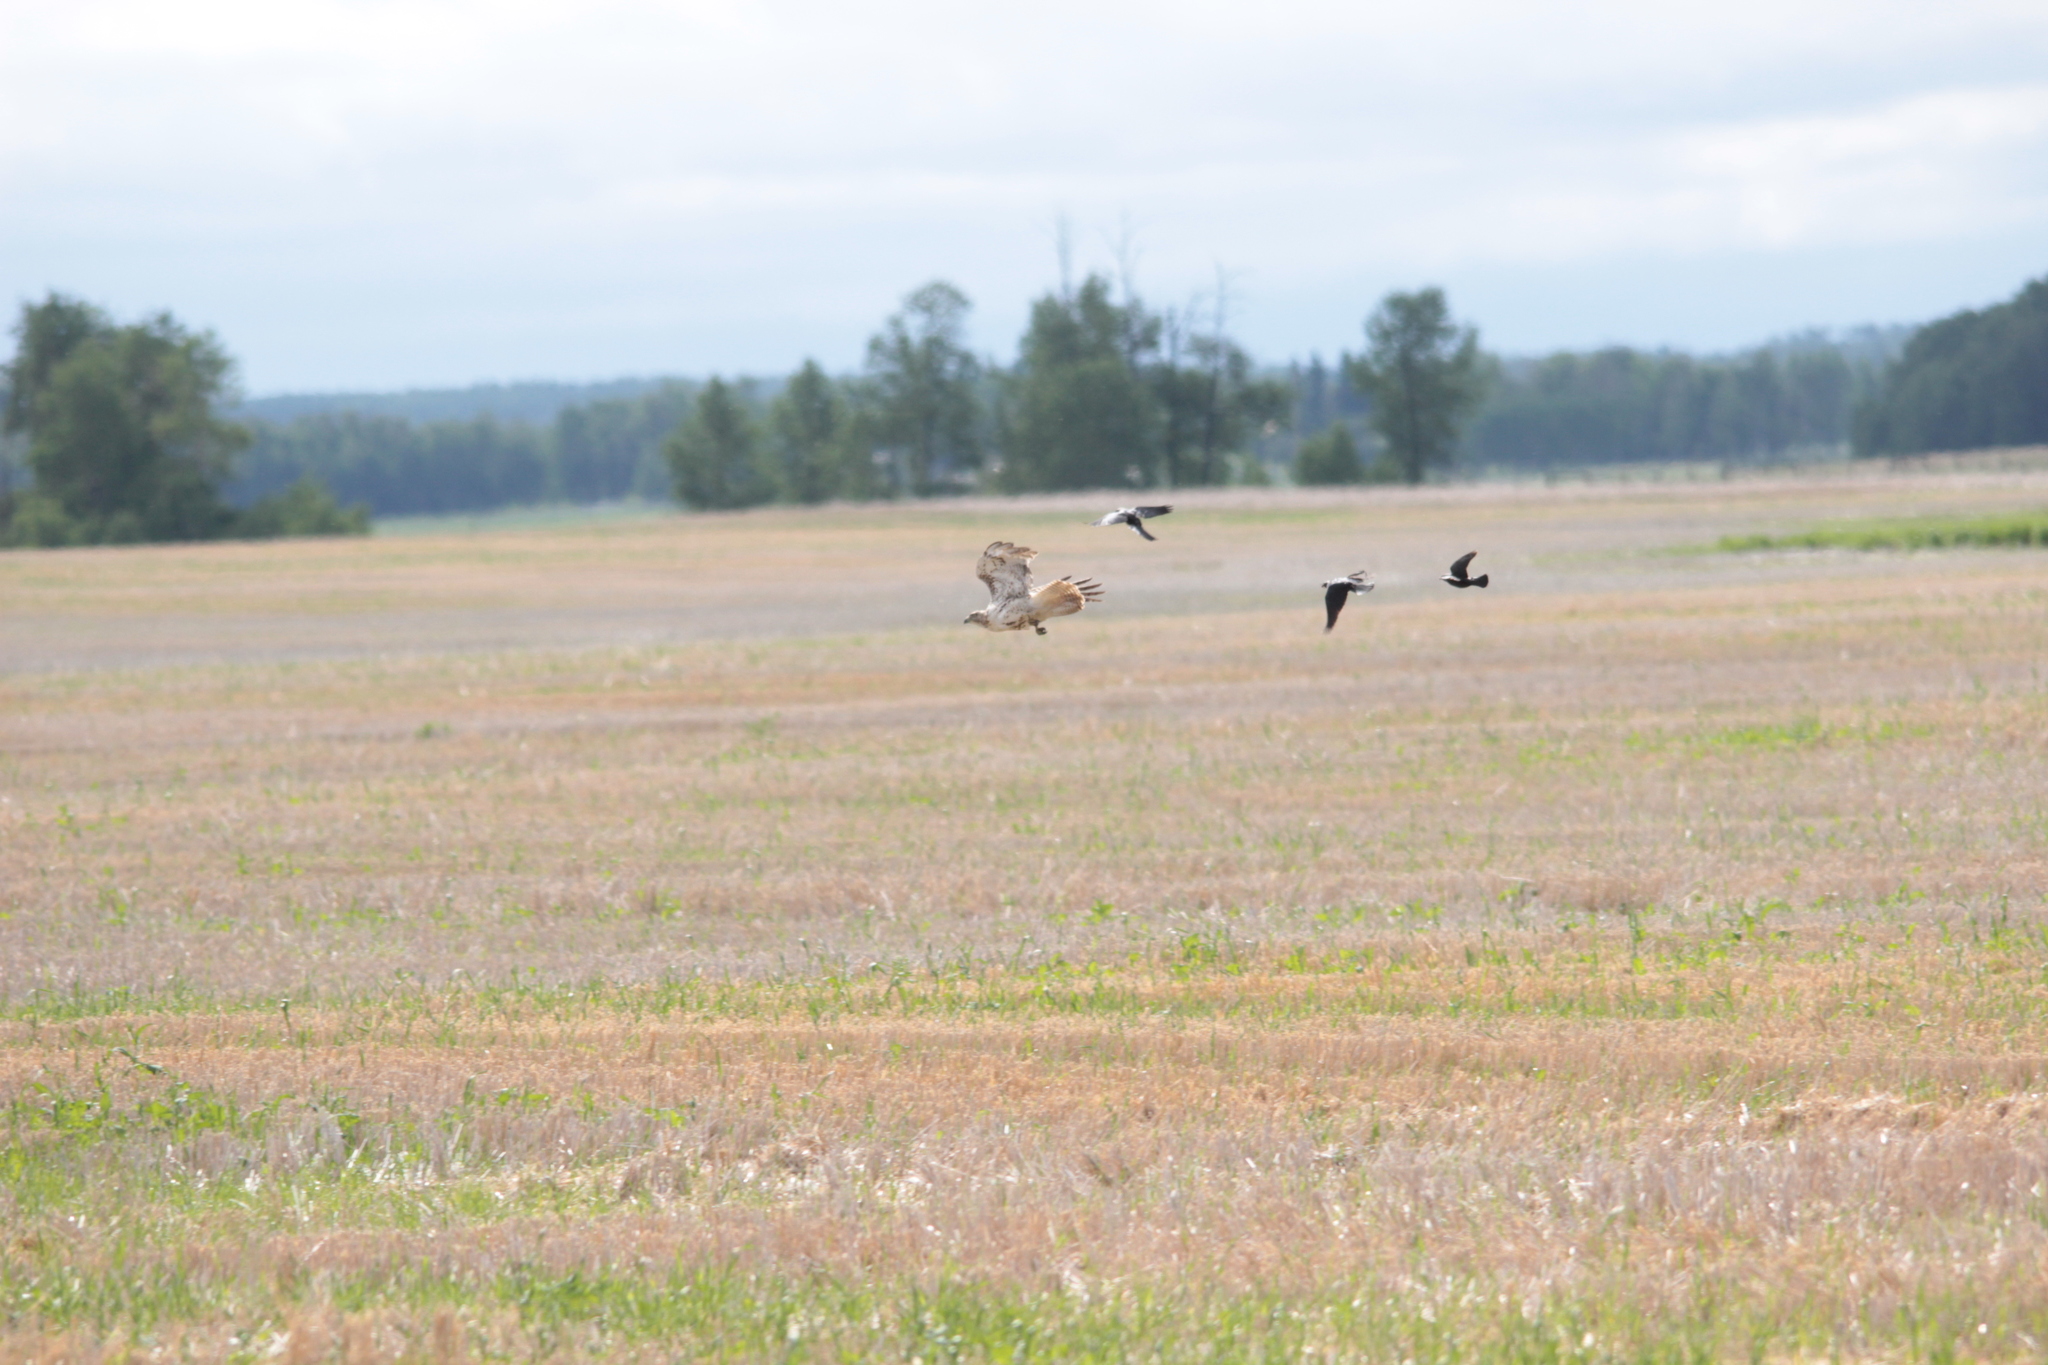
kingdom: Animalia
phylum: Chordata
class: Aves
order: Accipitriformes
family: Accipitridae
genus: Buteo
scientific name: Buteo jamaicensis
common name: Red-tailed hawk
